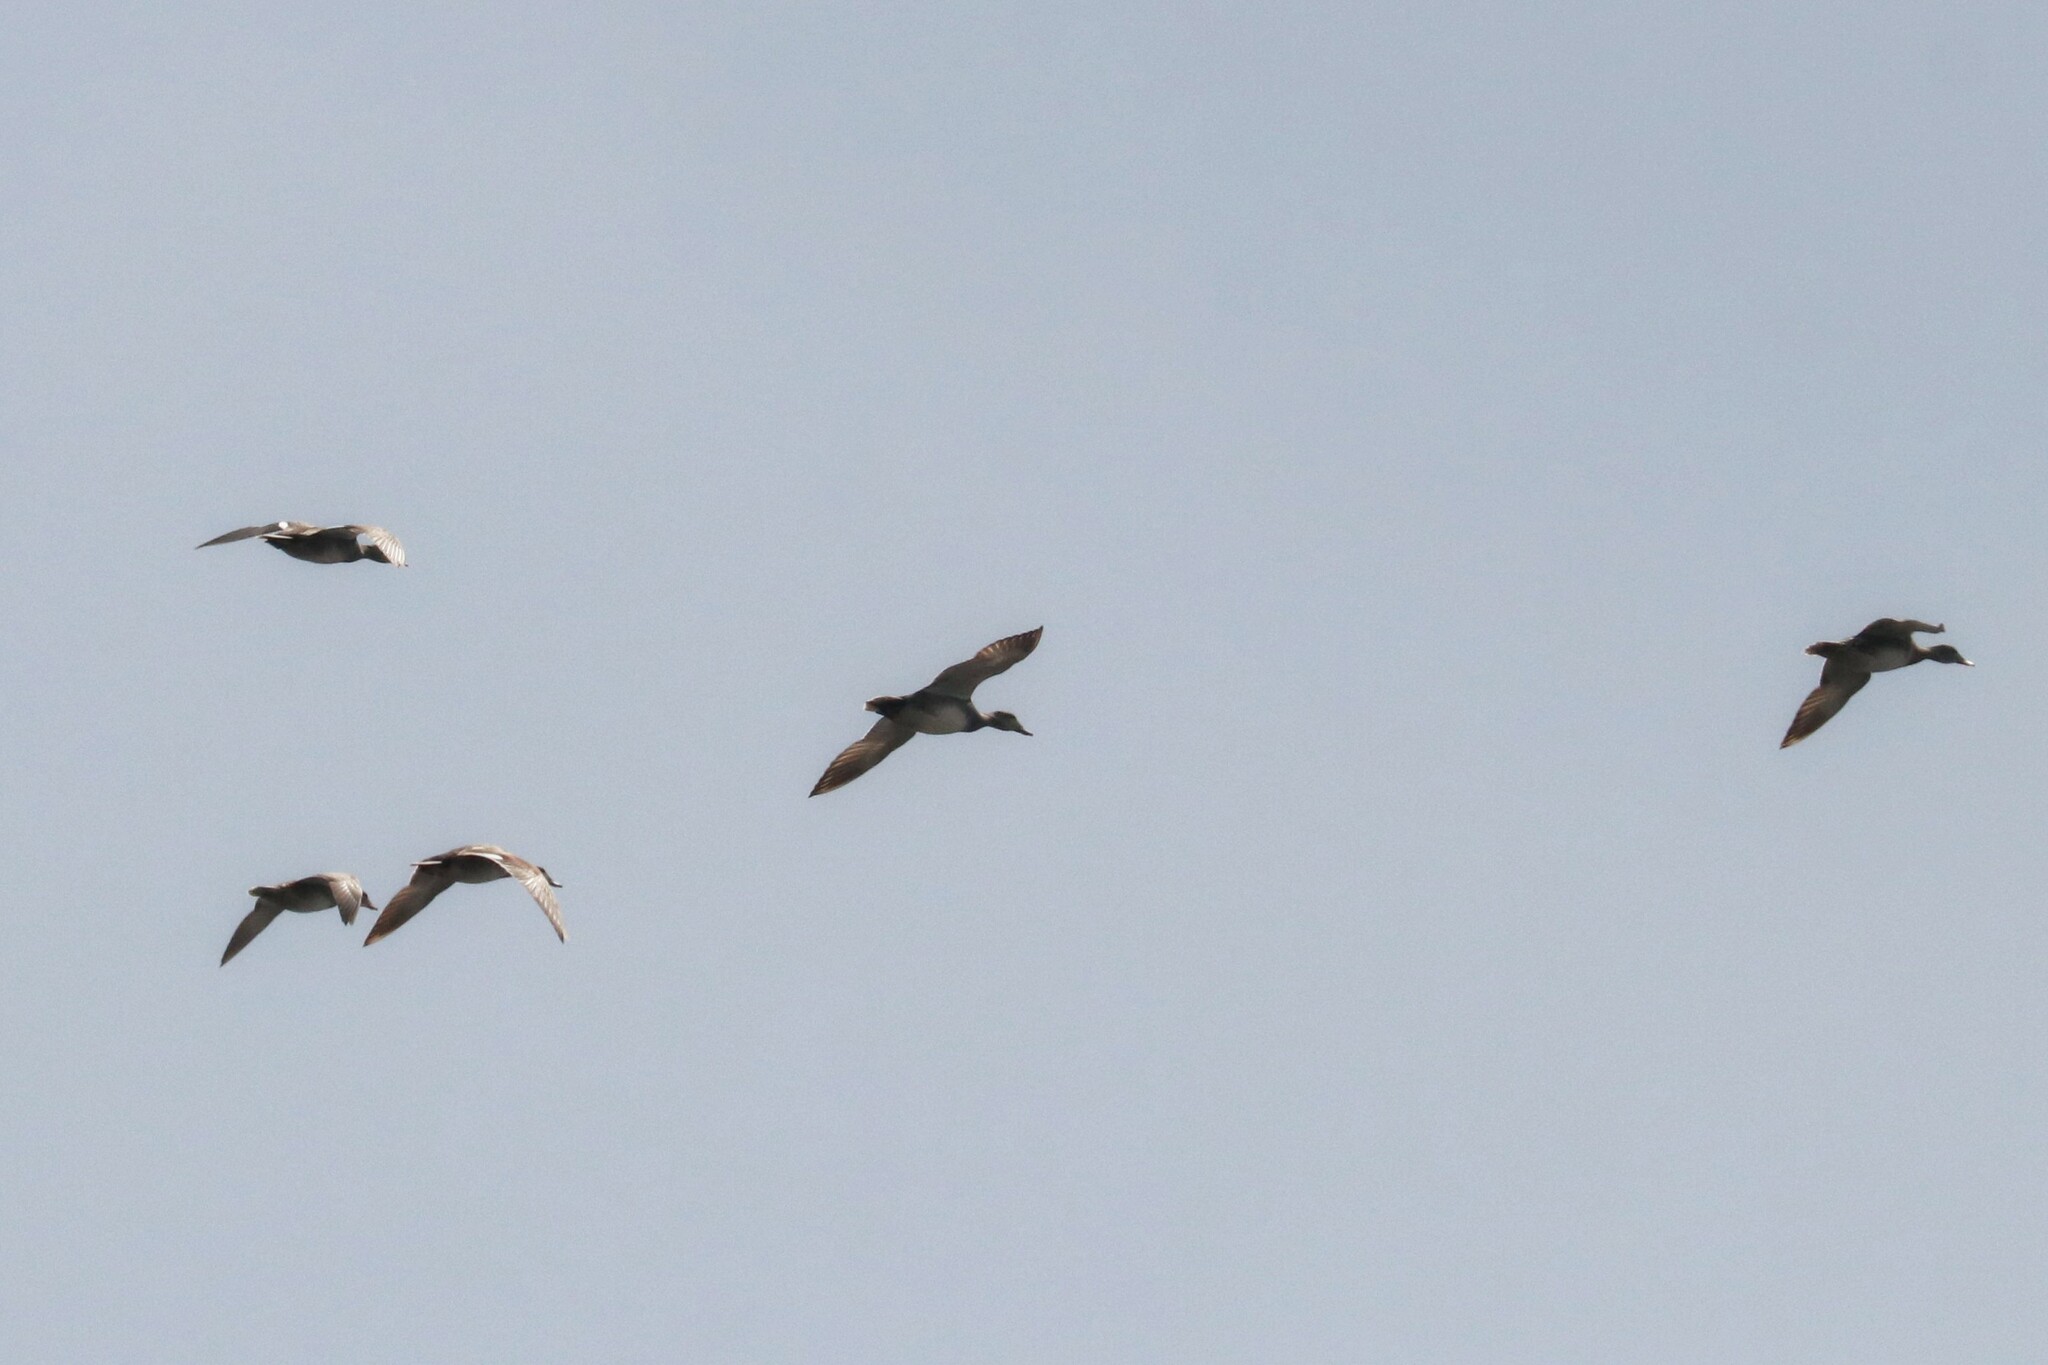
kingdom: Animalia
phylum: Chordata
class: Aves
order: Anseriformes
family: Anatidae
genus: Mareca
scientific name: Mareca strepera
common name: Gadwall
